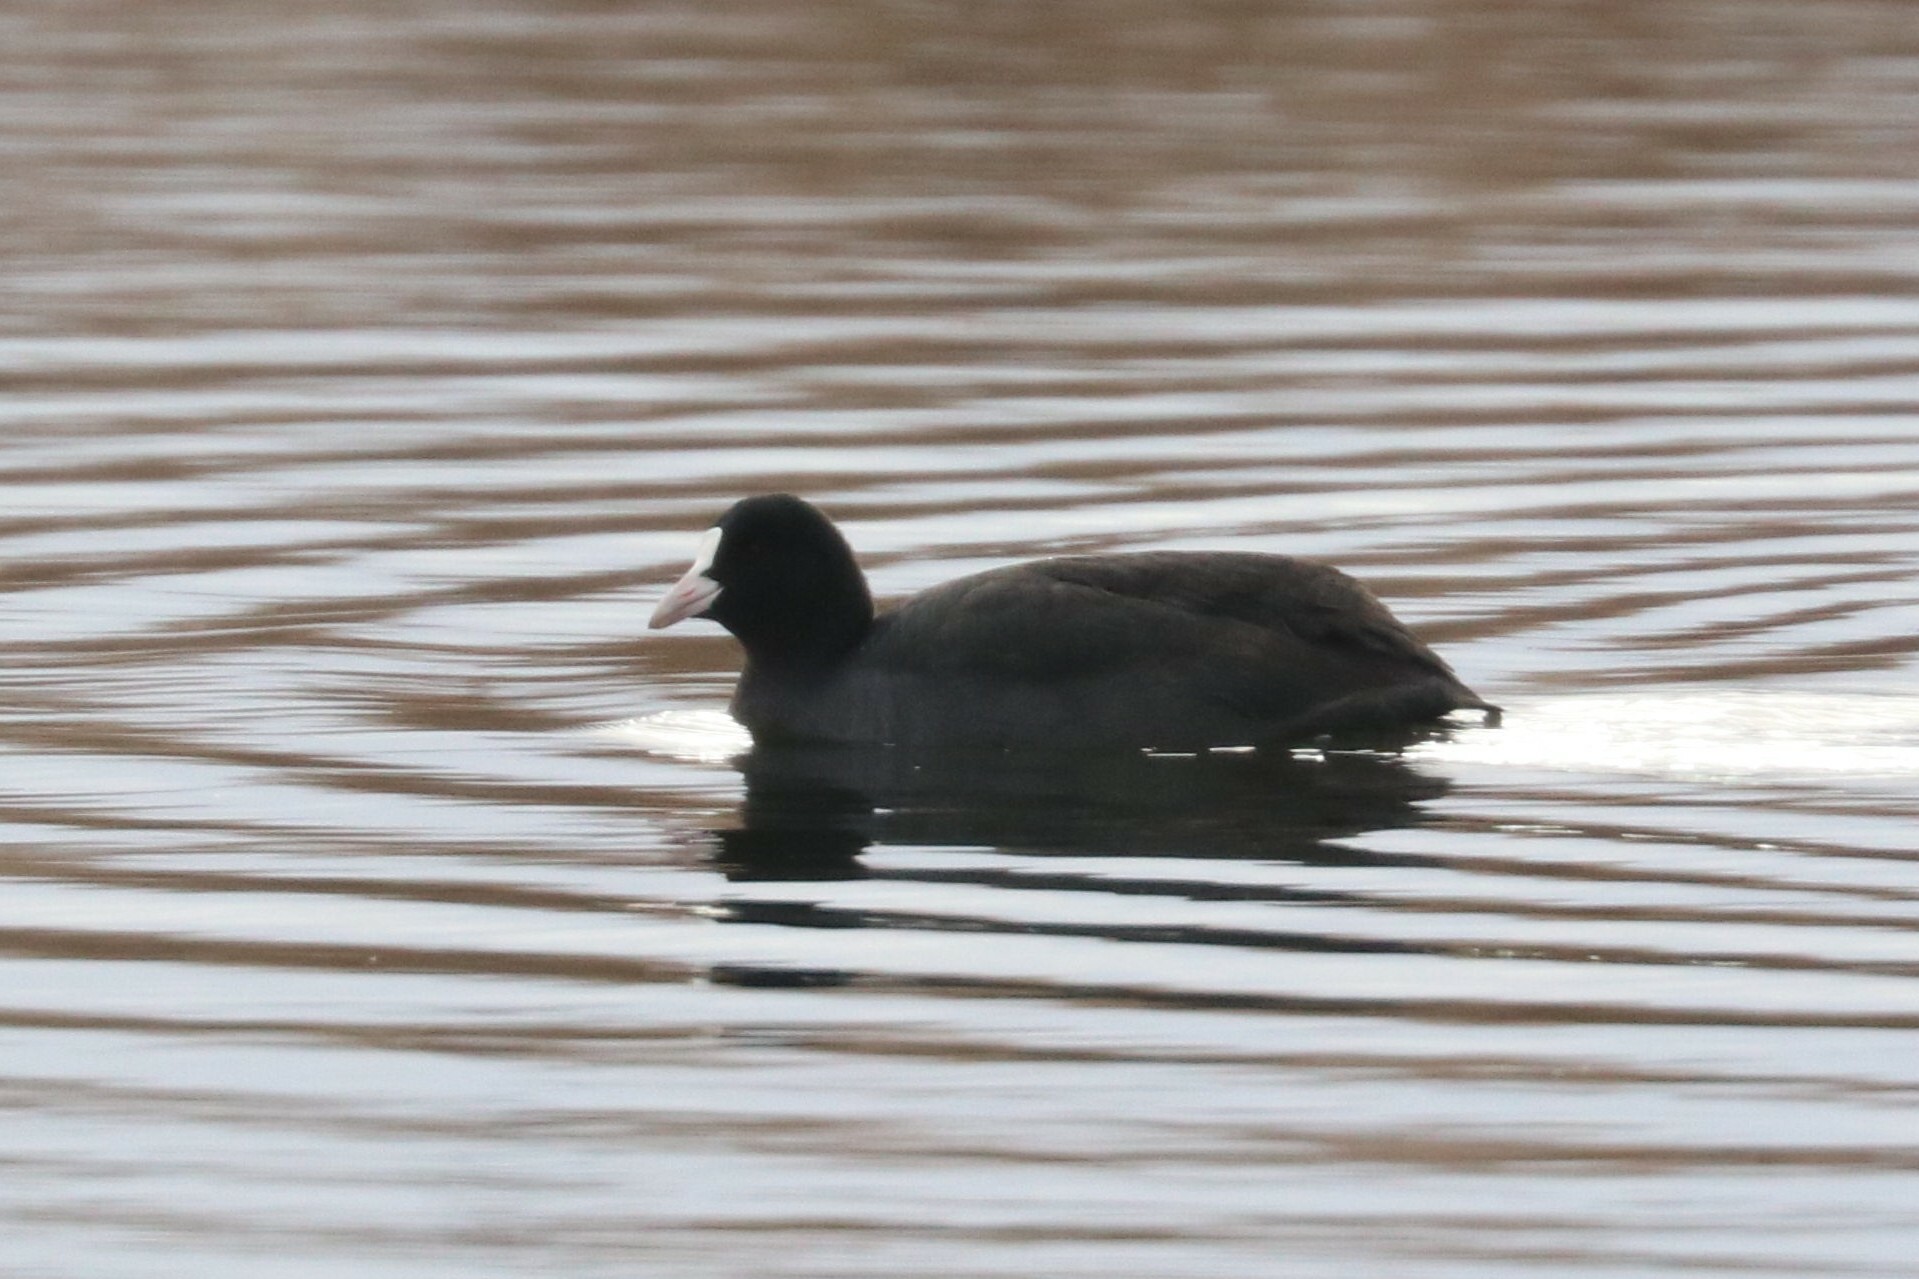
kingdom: Animalia
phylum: Chordata
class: Aves
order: Gruiformes
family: Rallidae
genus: Fulica
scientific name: Fulica atra
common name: Eurasian coot
